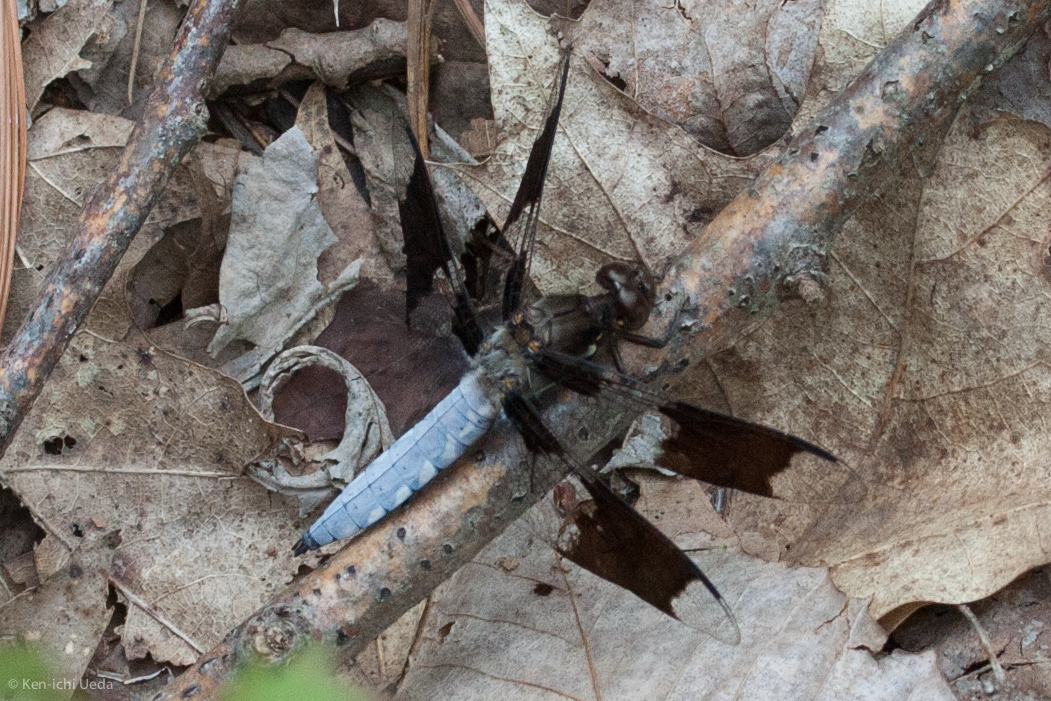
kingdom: Animalia
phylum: Arthropoda
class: Insecta
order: Odonata
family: Libellulidae
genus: Plathemis
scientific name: Plathemis lydia
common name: Common whitetail
